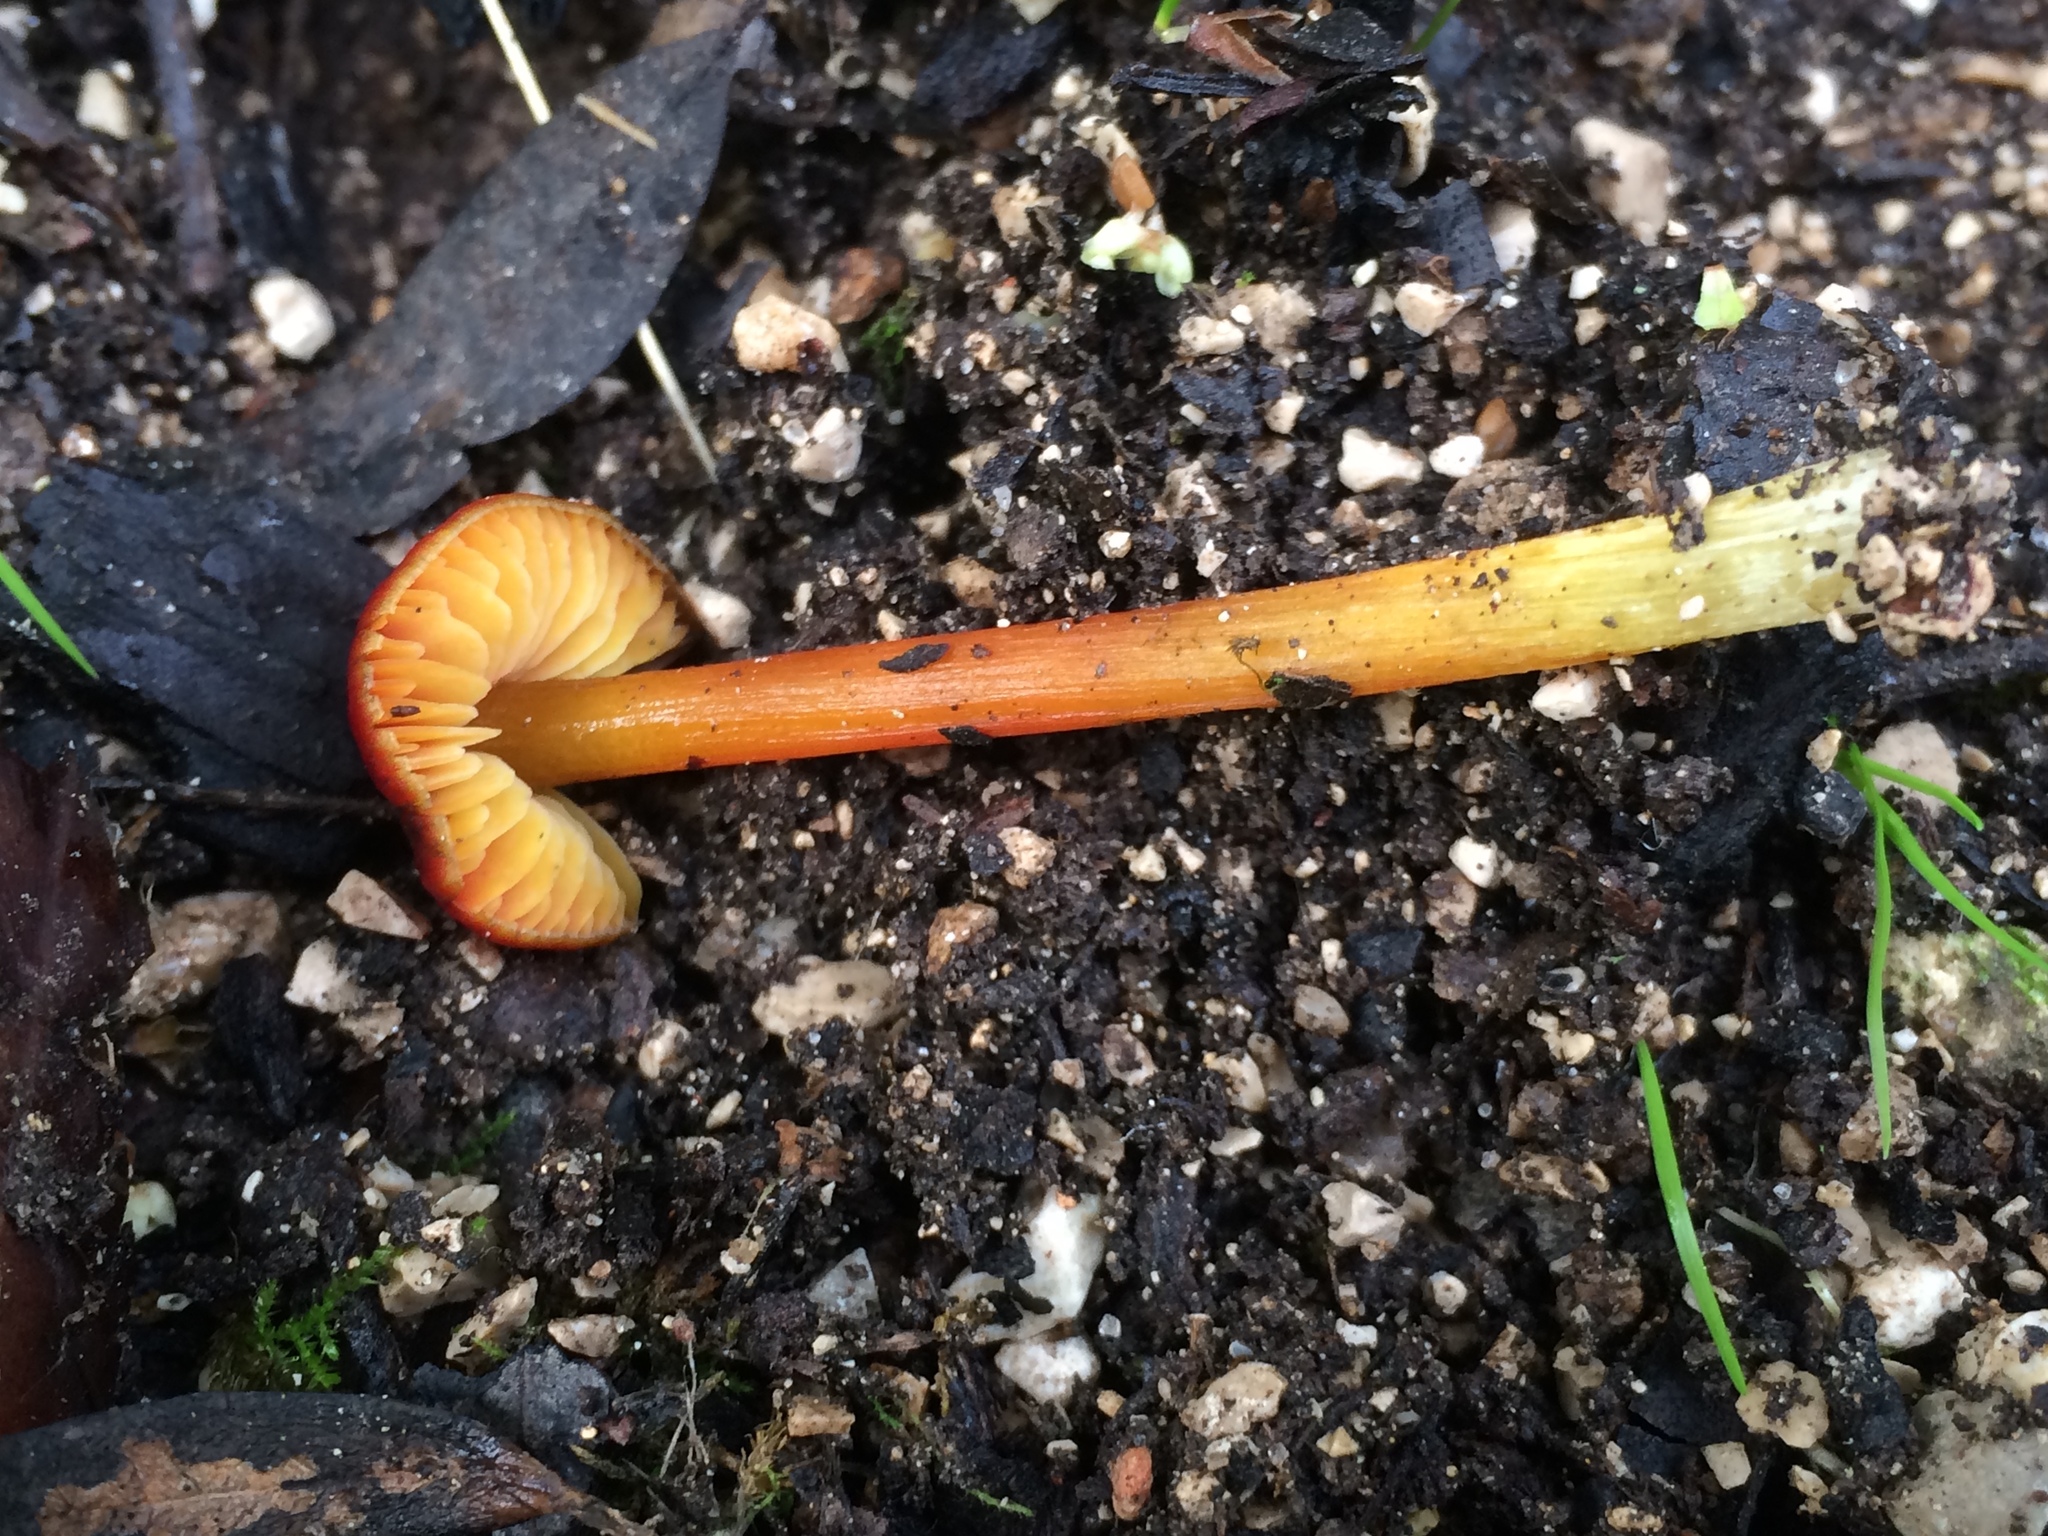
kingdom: Fungi
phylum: Basidiomycota
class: Agaricomycetes
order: Agaricales
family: Hygrophoraceae
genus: Hygrocybe
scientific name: Hygrocybe conica
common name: Blackening wax-cap
